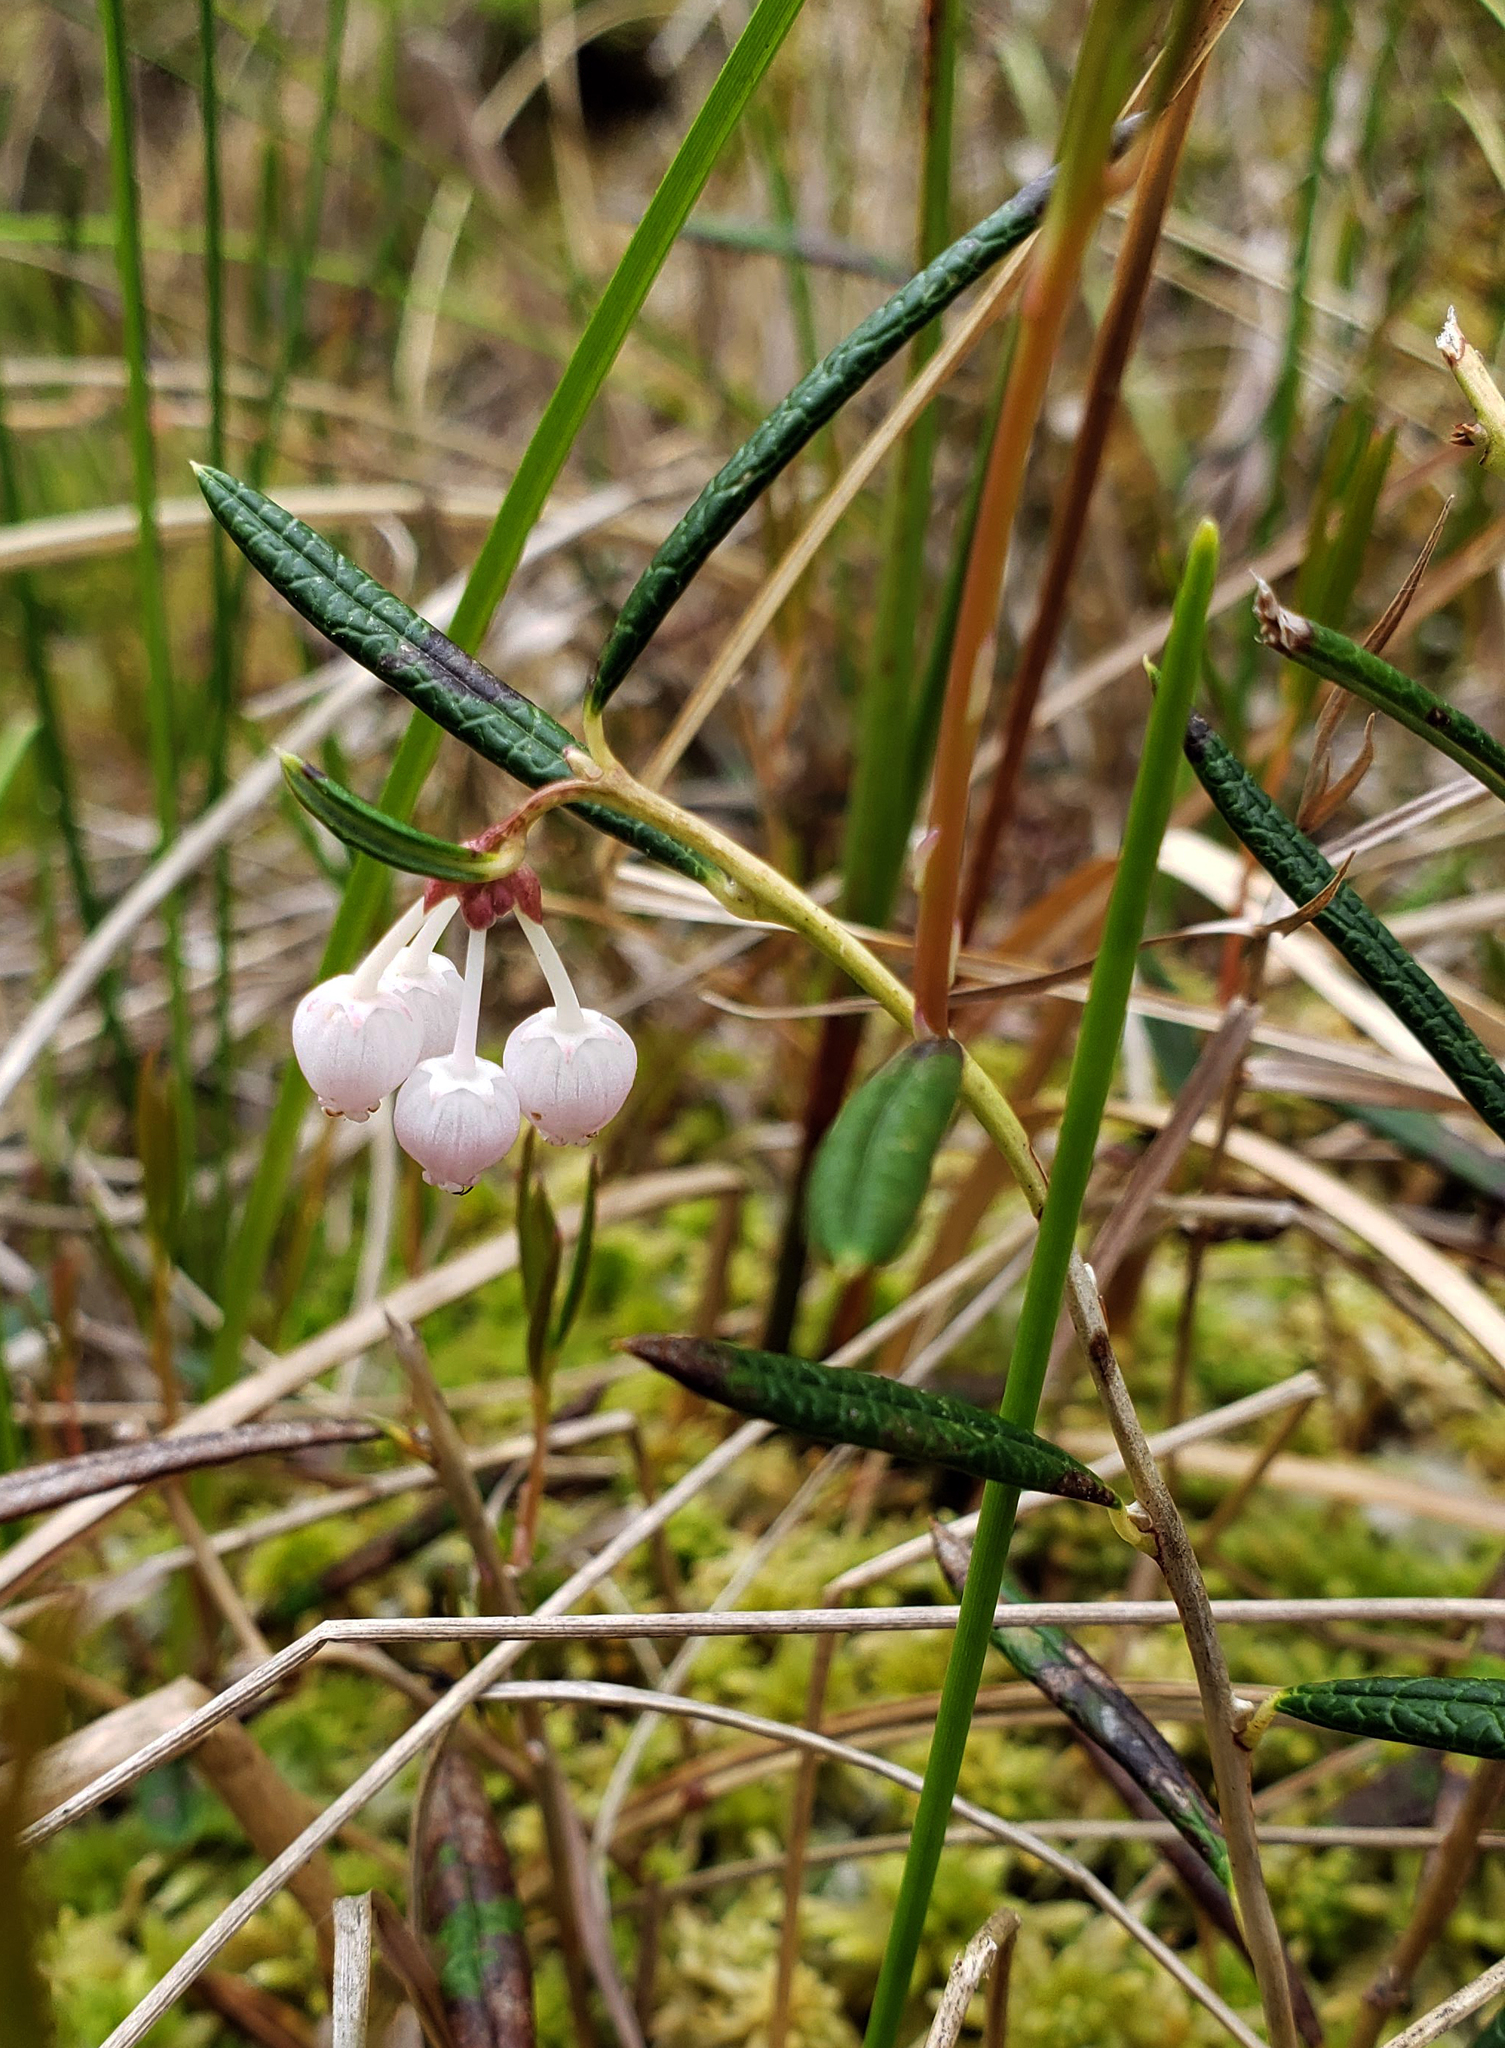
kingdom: Plantae
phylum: Tracheophyta
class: Magnoliopsida
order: Ericales
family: Ericaceae
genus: Andromeda
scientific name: Andromeda polifolia
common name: Bog-rosemary
